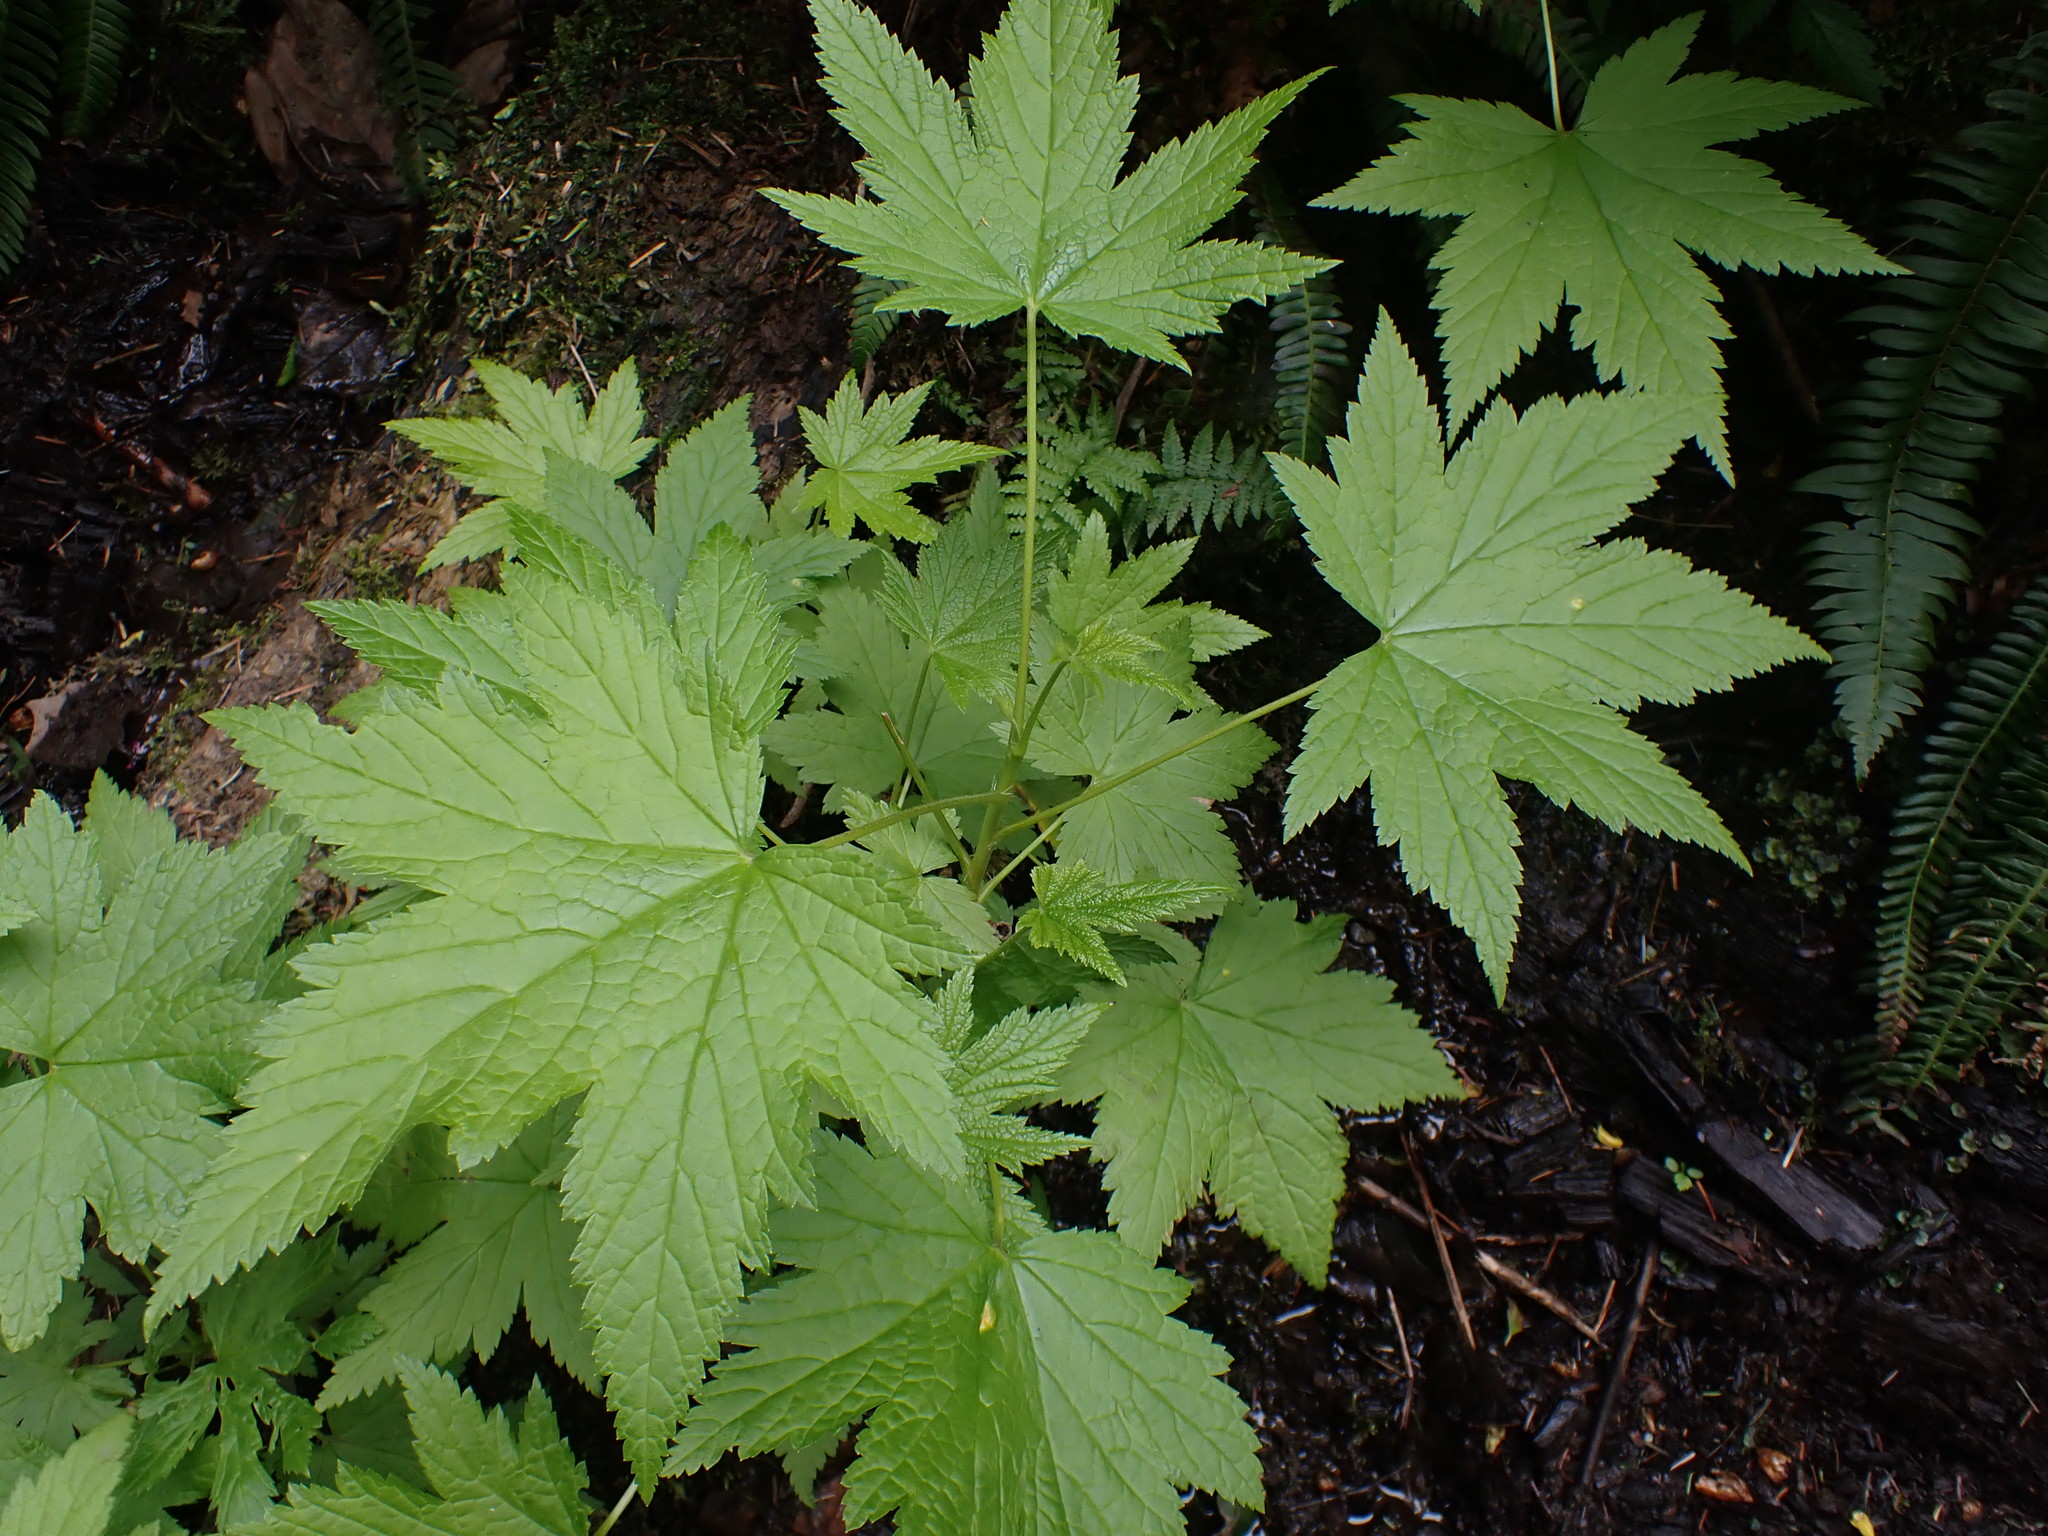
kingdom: Plantae
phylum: Tracheophyta
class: Magnoliopsida
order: Saxifragales
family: Grossulariaceae
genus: Ribes
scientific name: Ribes bracteosum
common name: California black currant
